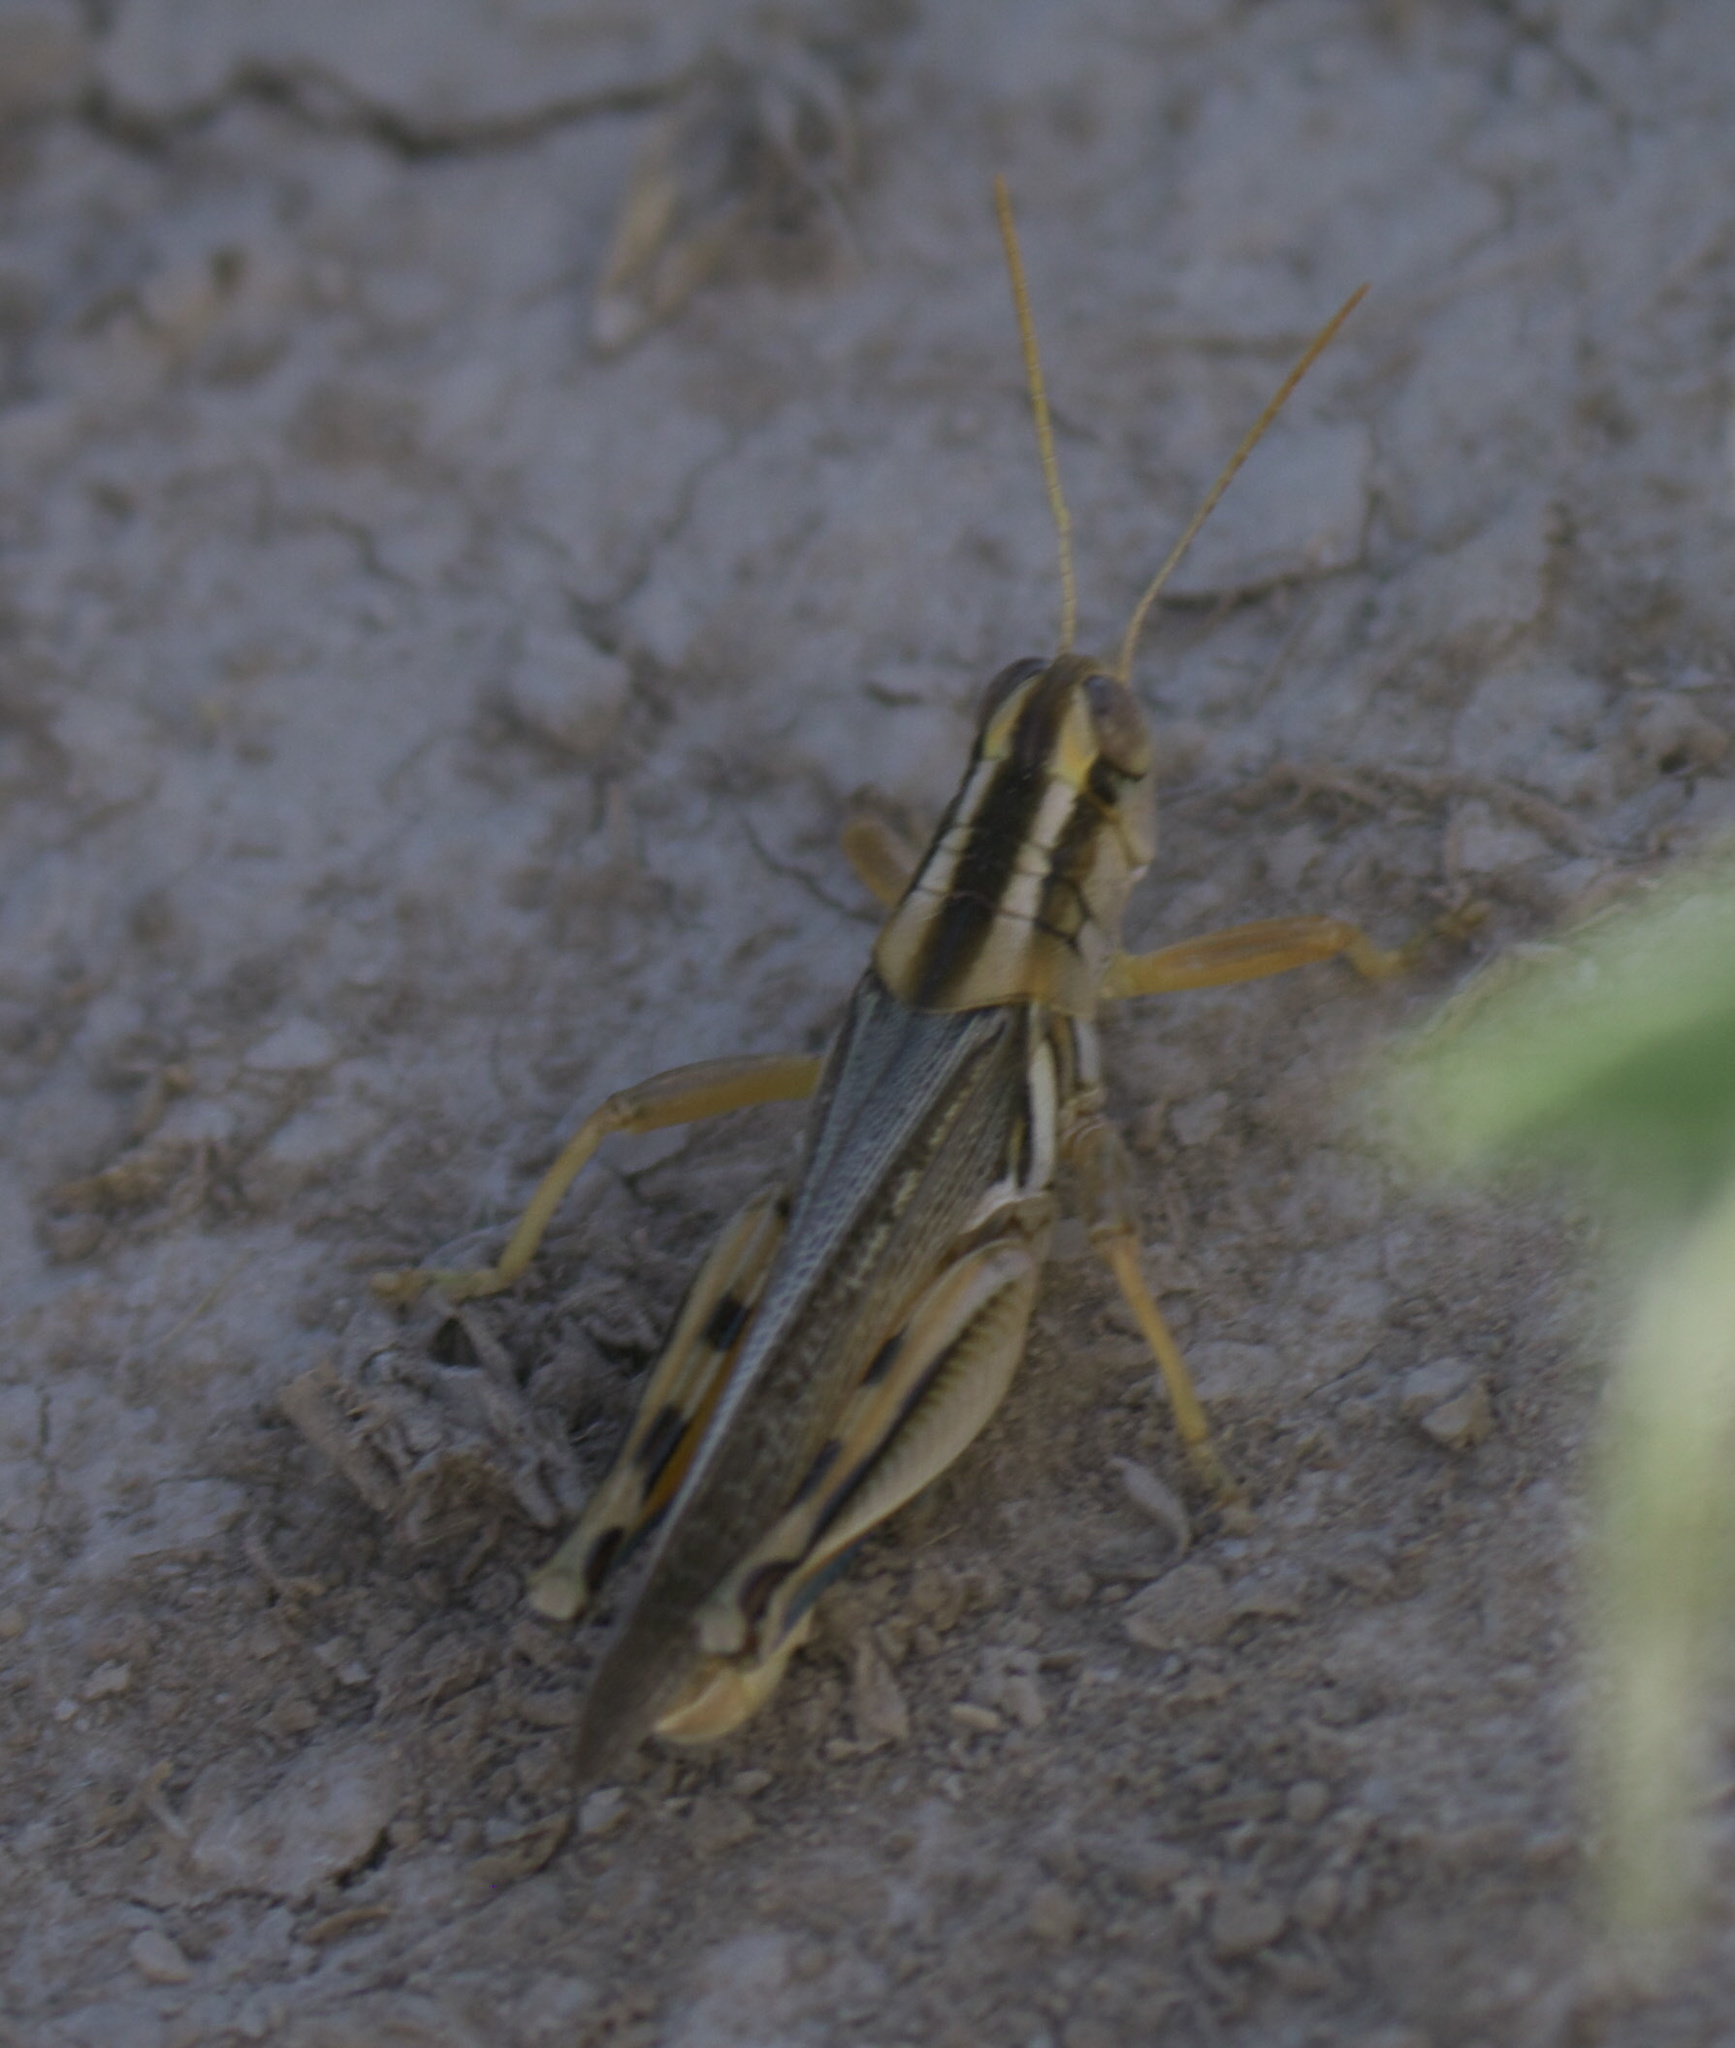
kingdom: Animalia
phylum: Arthropoda
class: Insecta
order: Orthoptera
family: Acrididae
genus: Melanoplus
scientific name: Melanoplus packardii
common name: Packard's grasshopper
